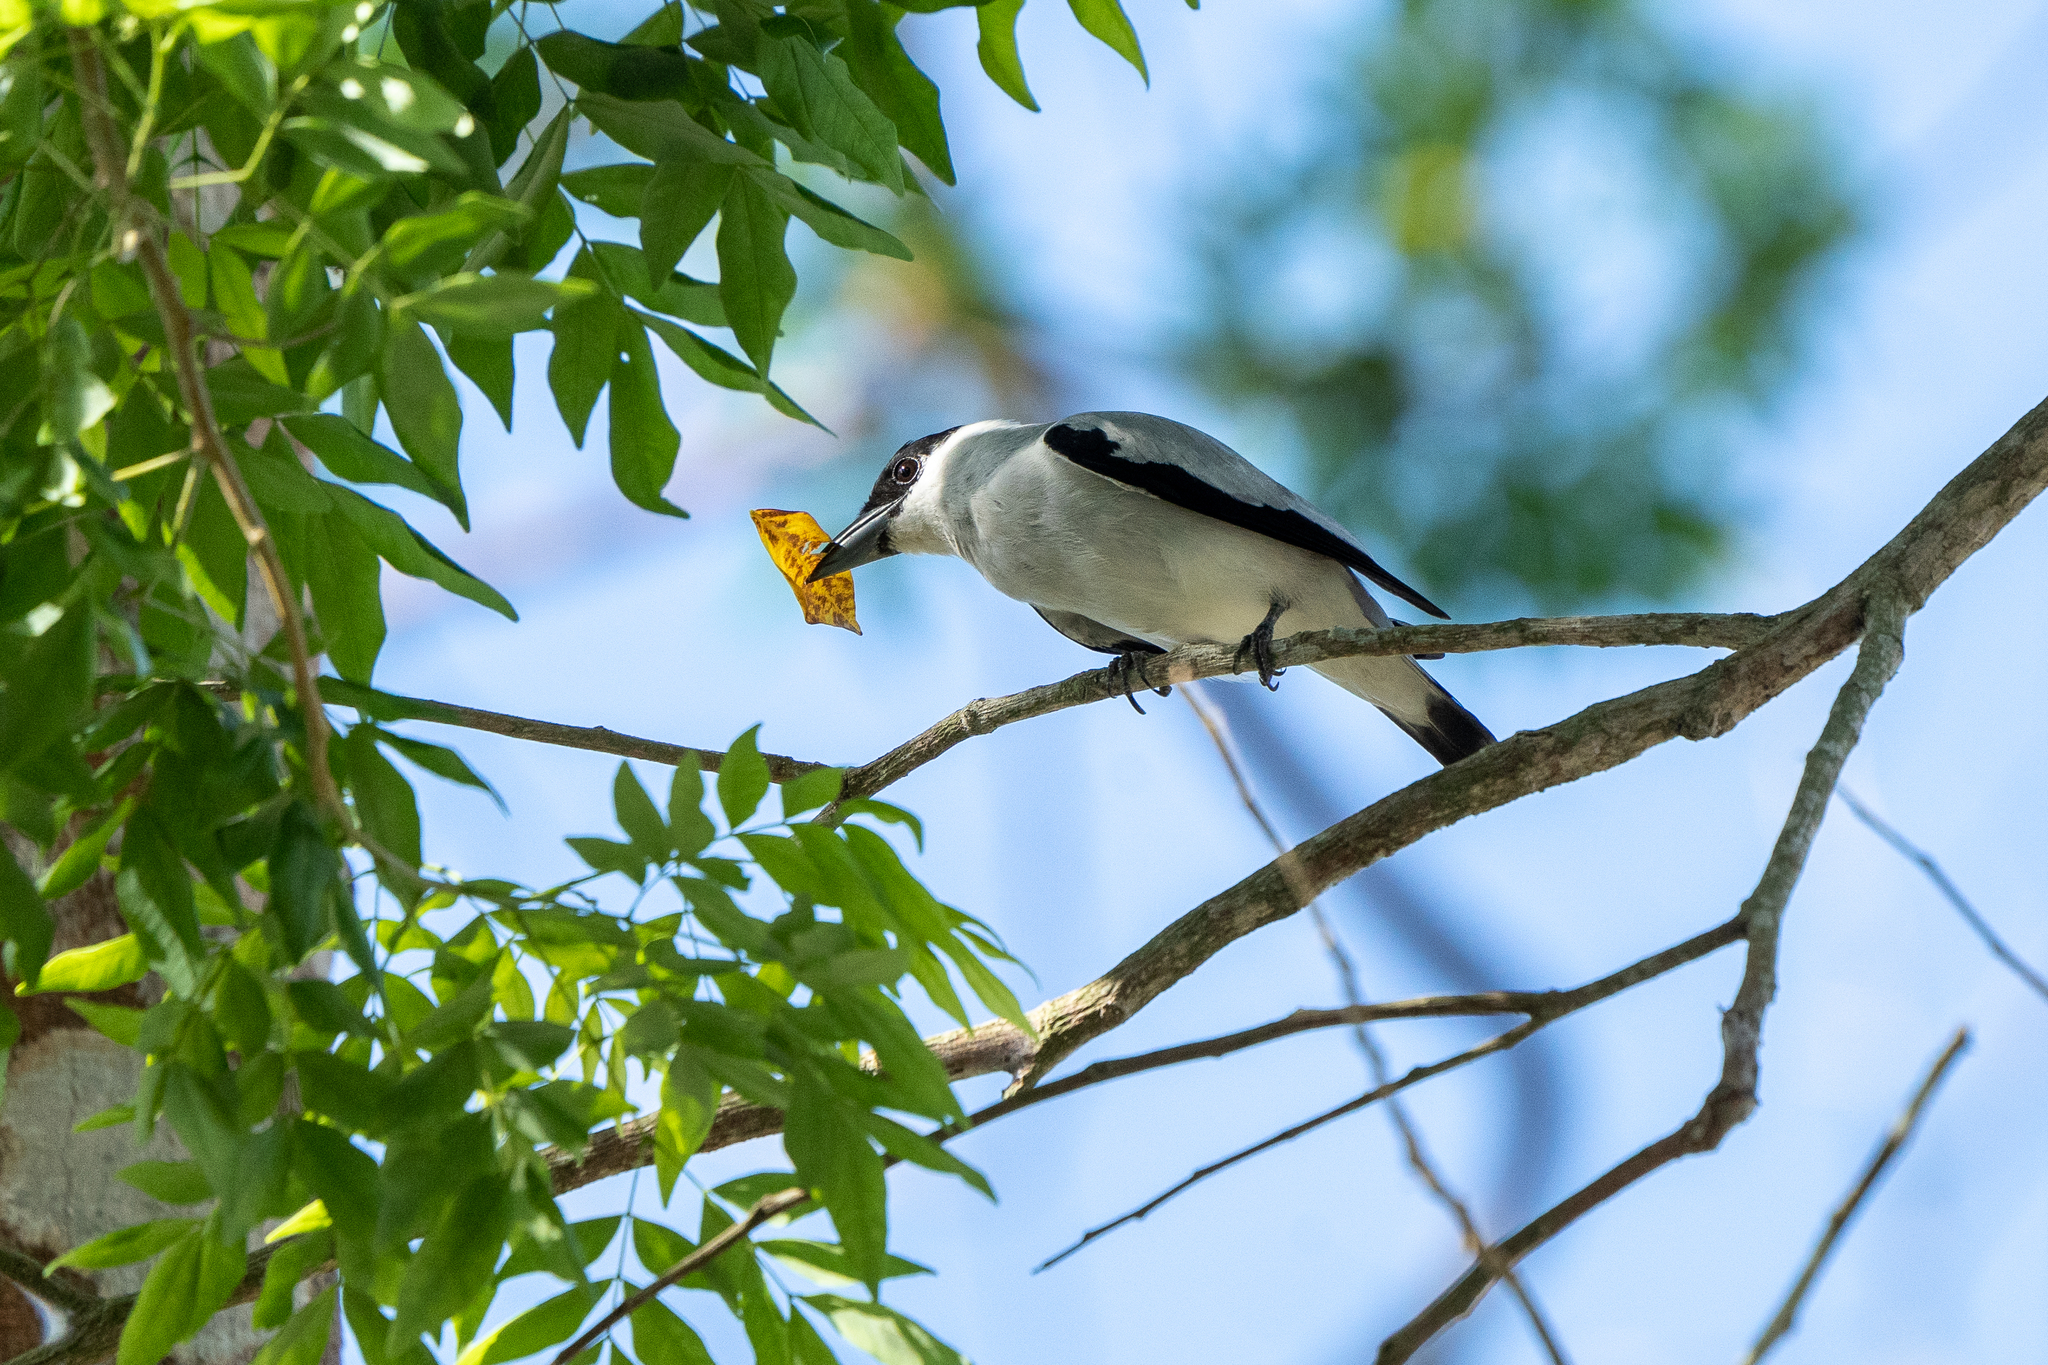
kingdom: Animalia
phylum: Chordata
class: Aves
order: Passeriformes
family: Cotingidae
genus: Tityra
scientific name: Tityra inquisitor
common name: Black-crowned tityra
